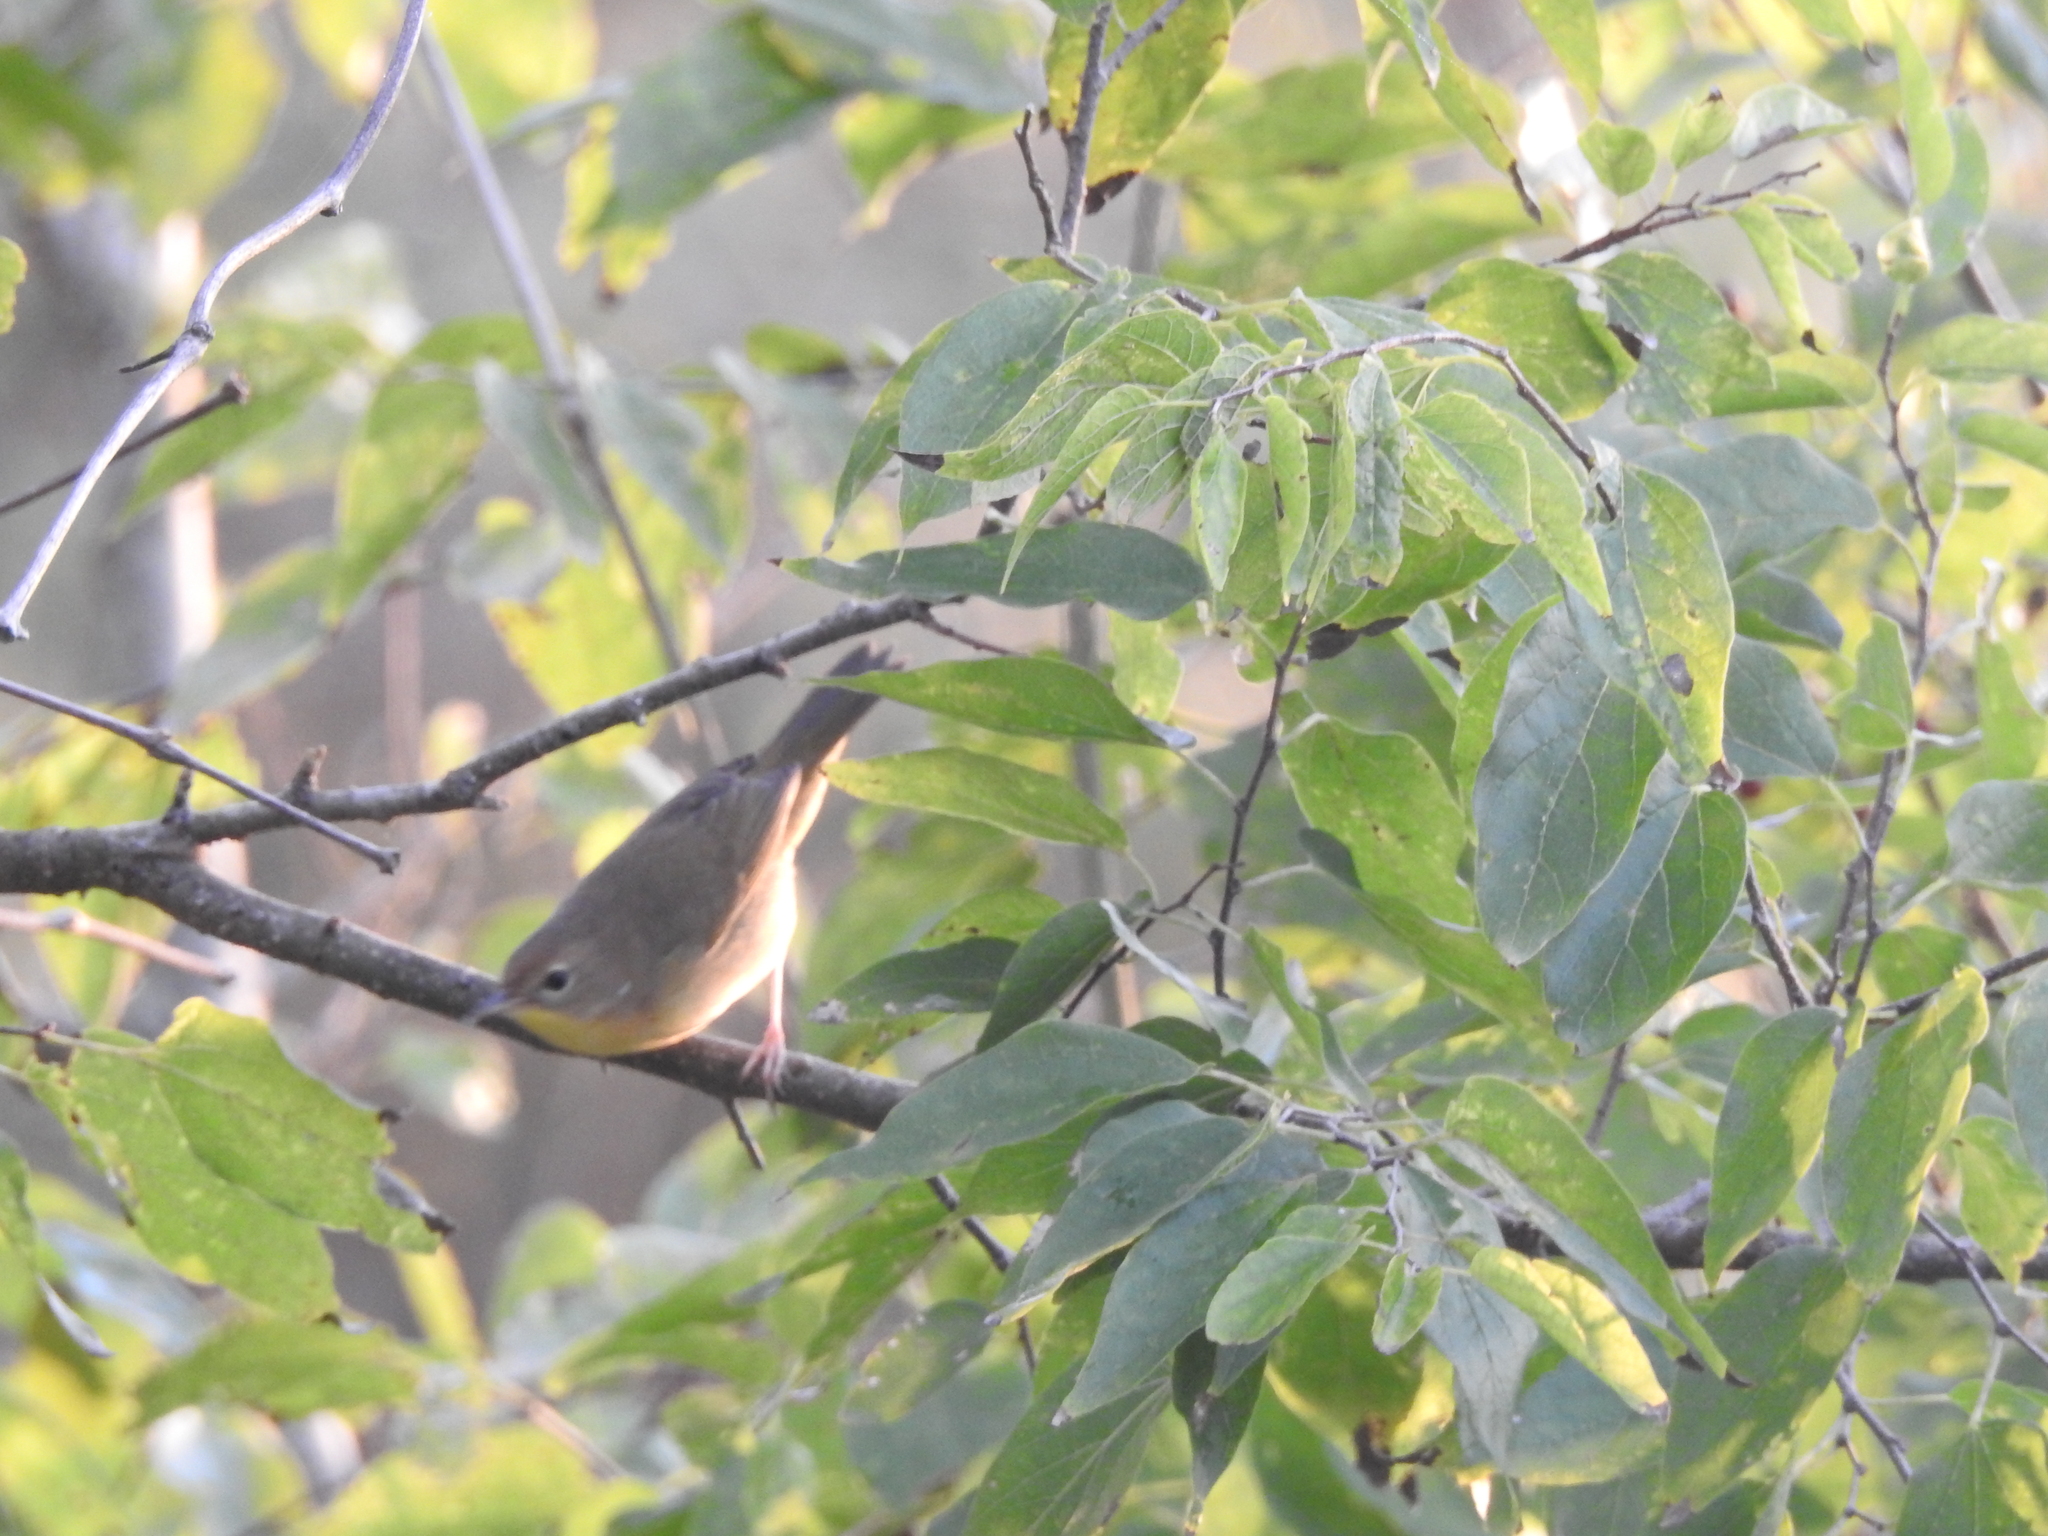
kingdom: Animalia
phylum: Chordata
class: Aves
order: Passeriformes
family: Parulidae
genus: Geothlypis
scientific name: Geothlypis trichas
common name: Common yellowthroat
